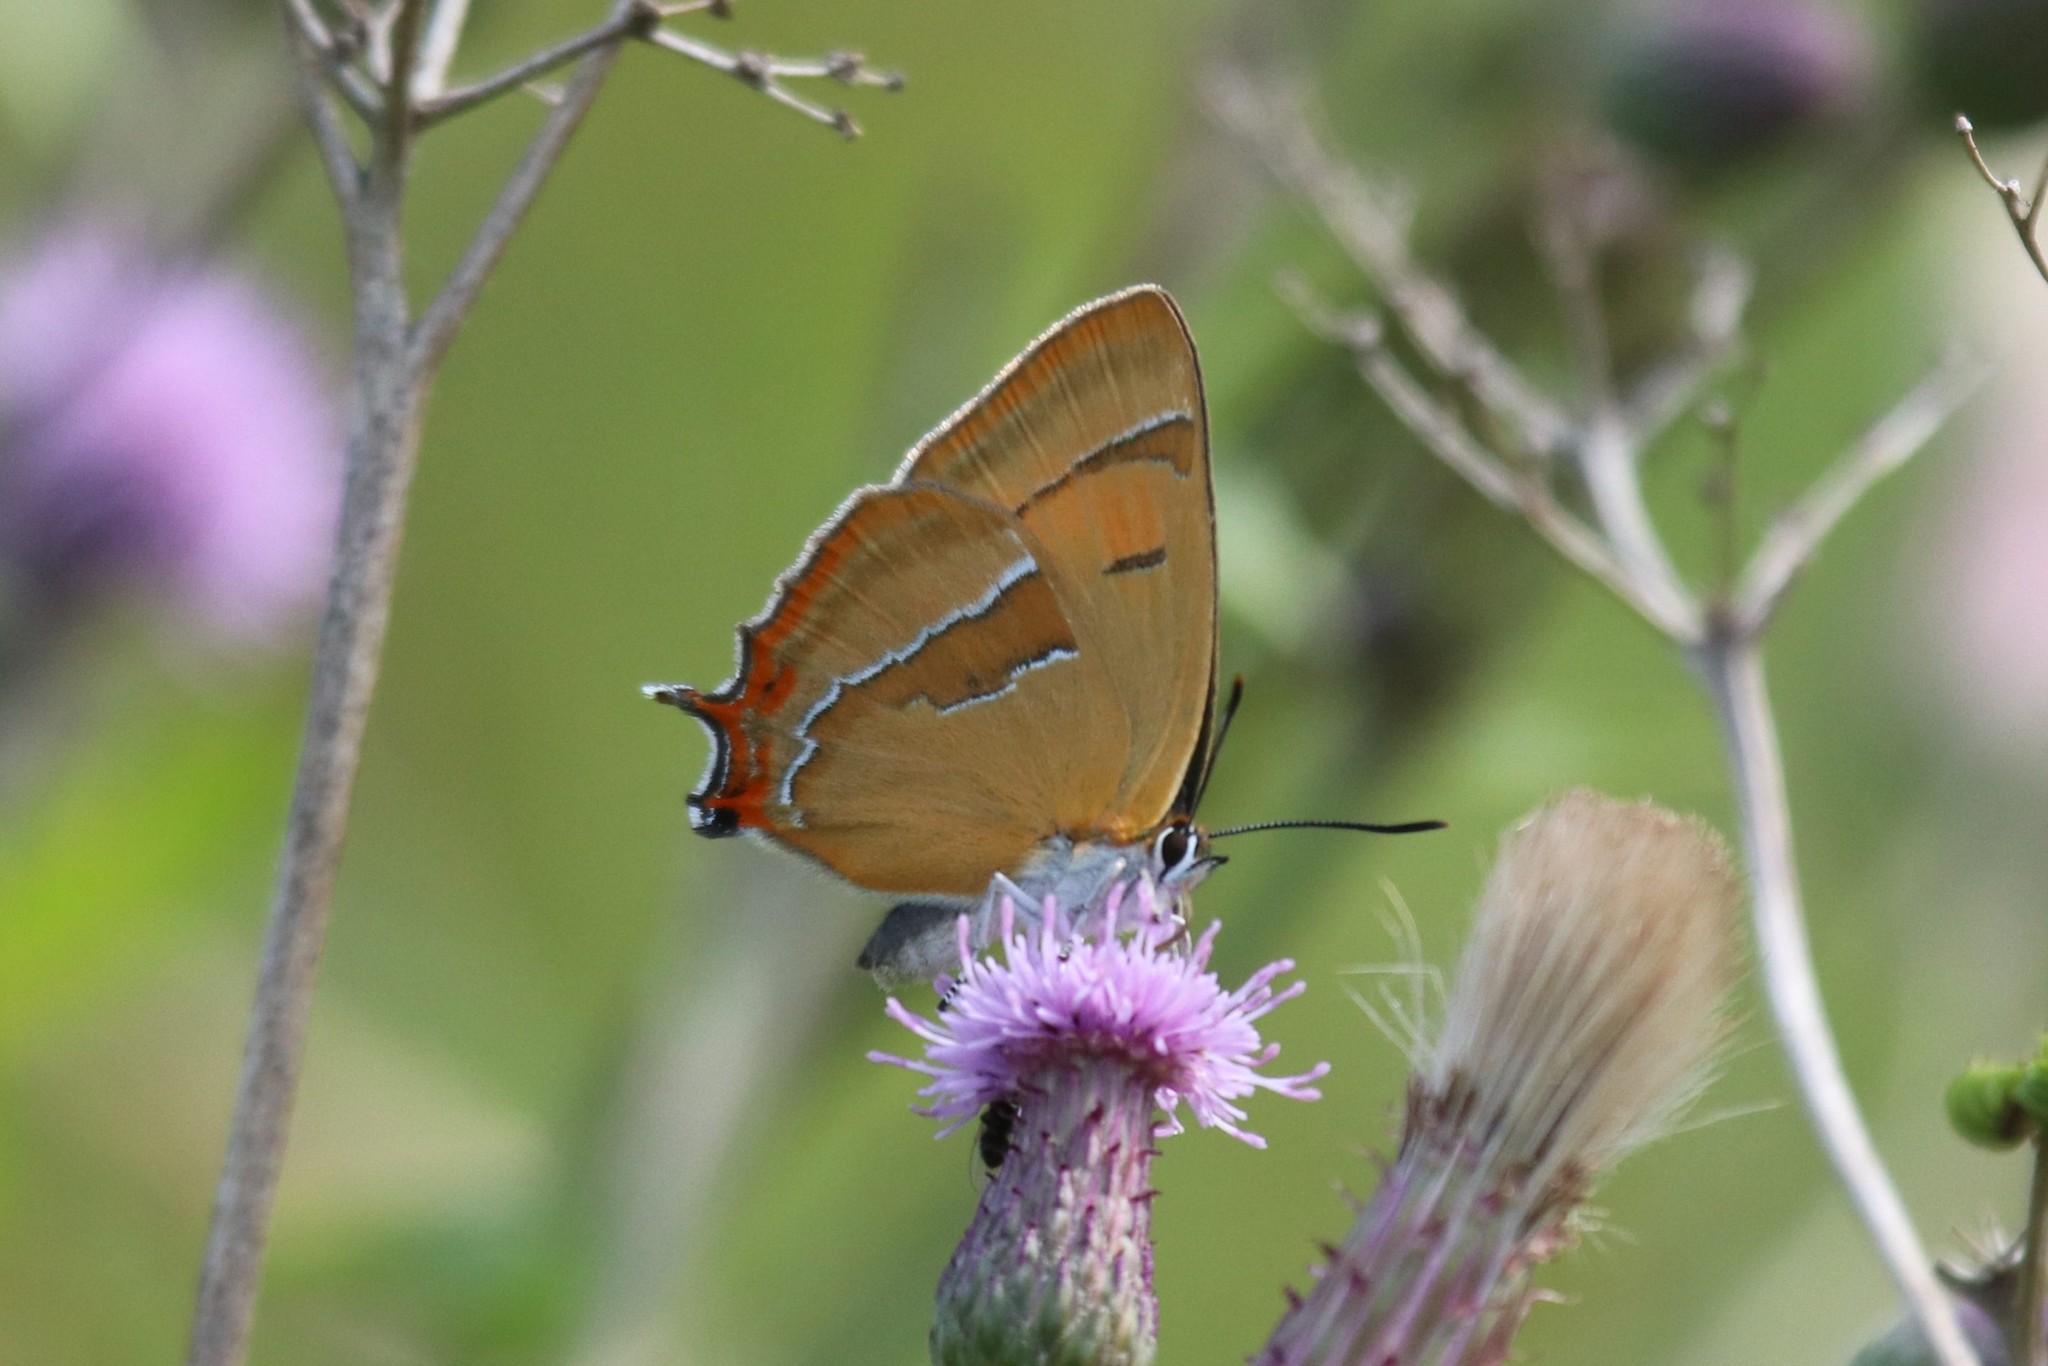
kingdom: Animalia
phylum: Arthropoda
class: Insecta
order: Lepidoptera
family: Lycaenidae
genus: Thecla
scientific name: Thecla betulae
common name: Brown hairstreak
